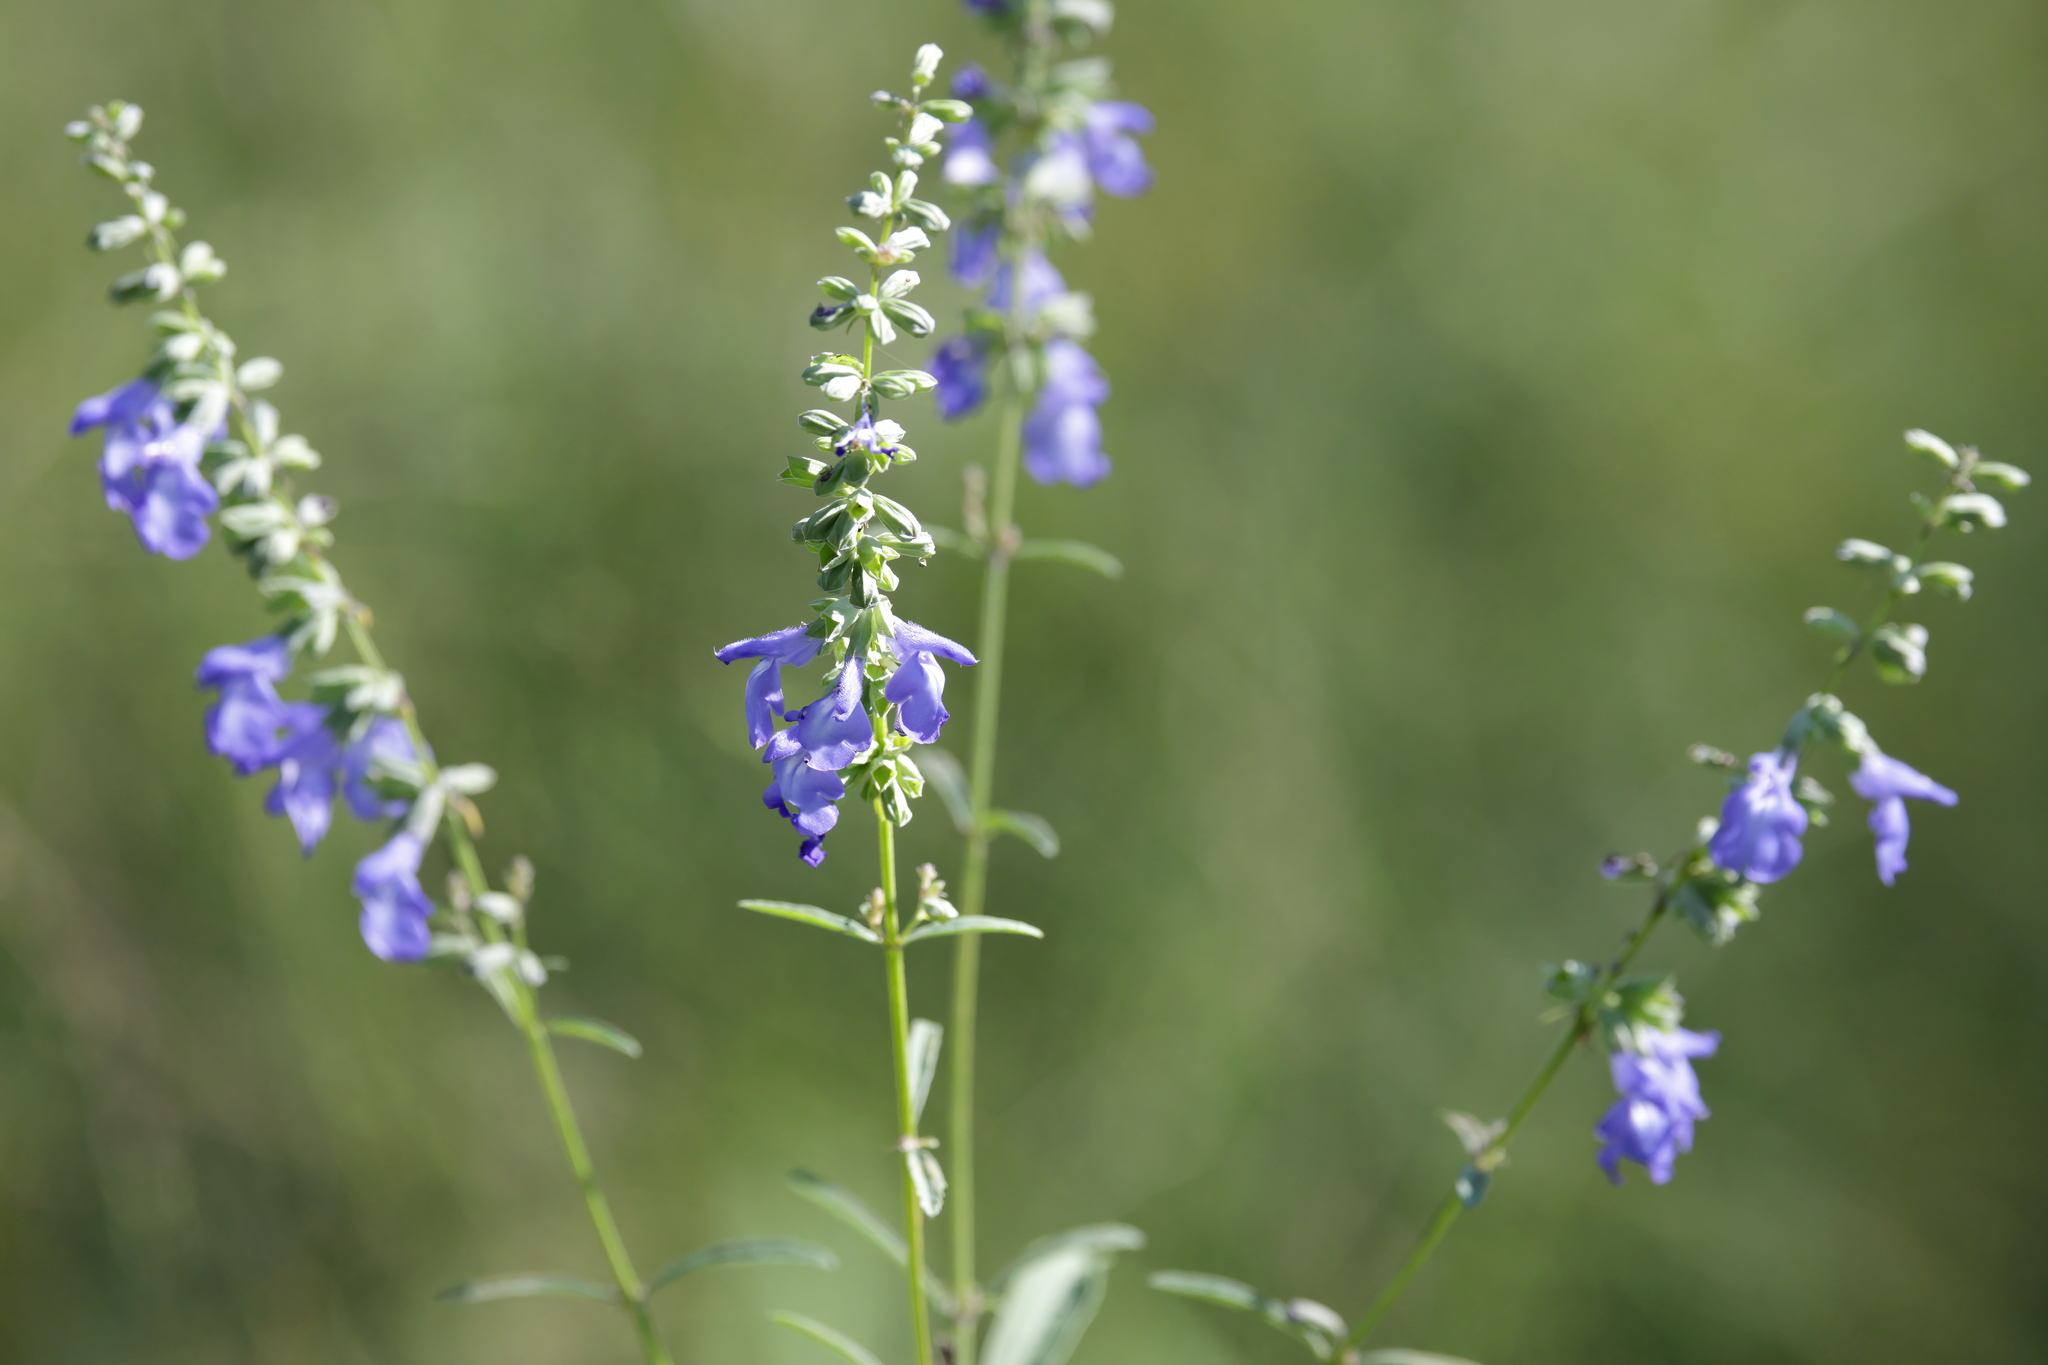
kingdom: Plantae
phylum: Tracheophyta
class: Magnoliopsida
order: Lamiales
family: Lamiaceae
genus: Salvia
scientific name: Salvia azurea
